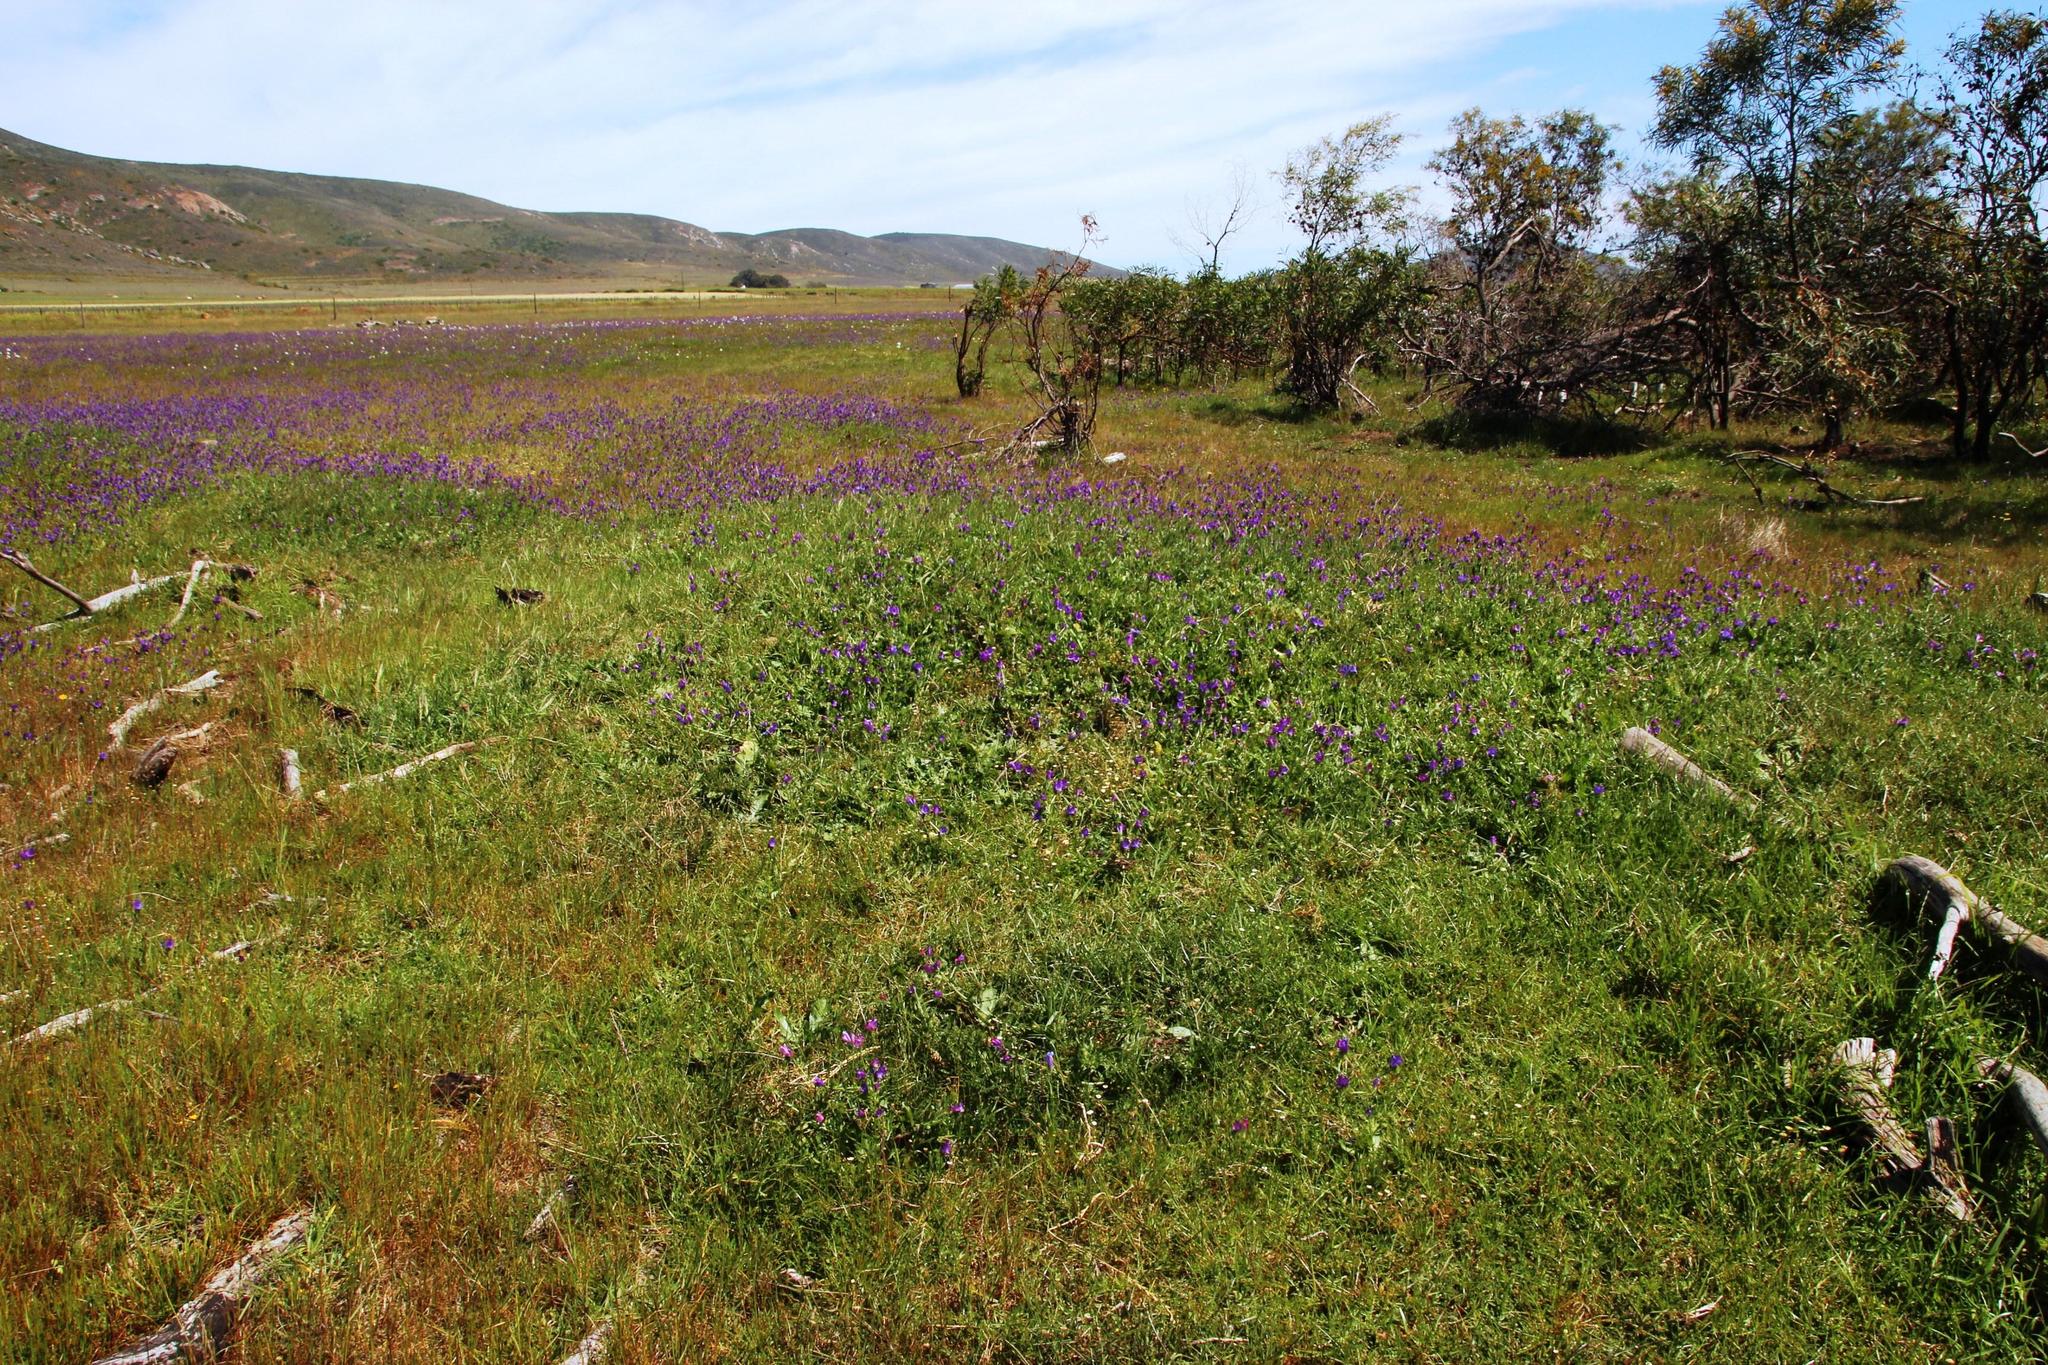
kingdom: Plantae
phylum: Tracheophyta
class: Liliopsida
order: Poales
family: Poaceae
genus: Cenchrus
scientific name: Cenchrus clandestinus
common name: Kikuyugrass
